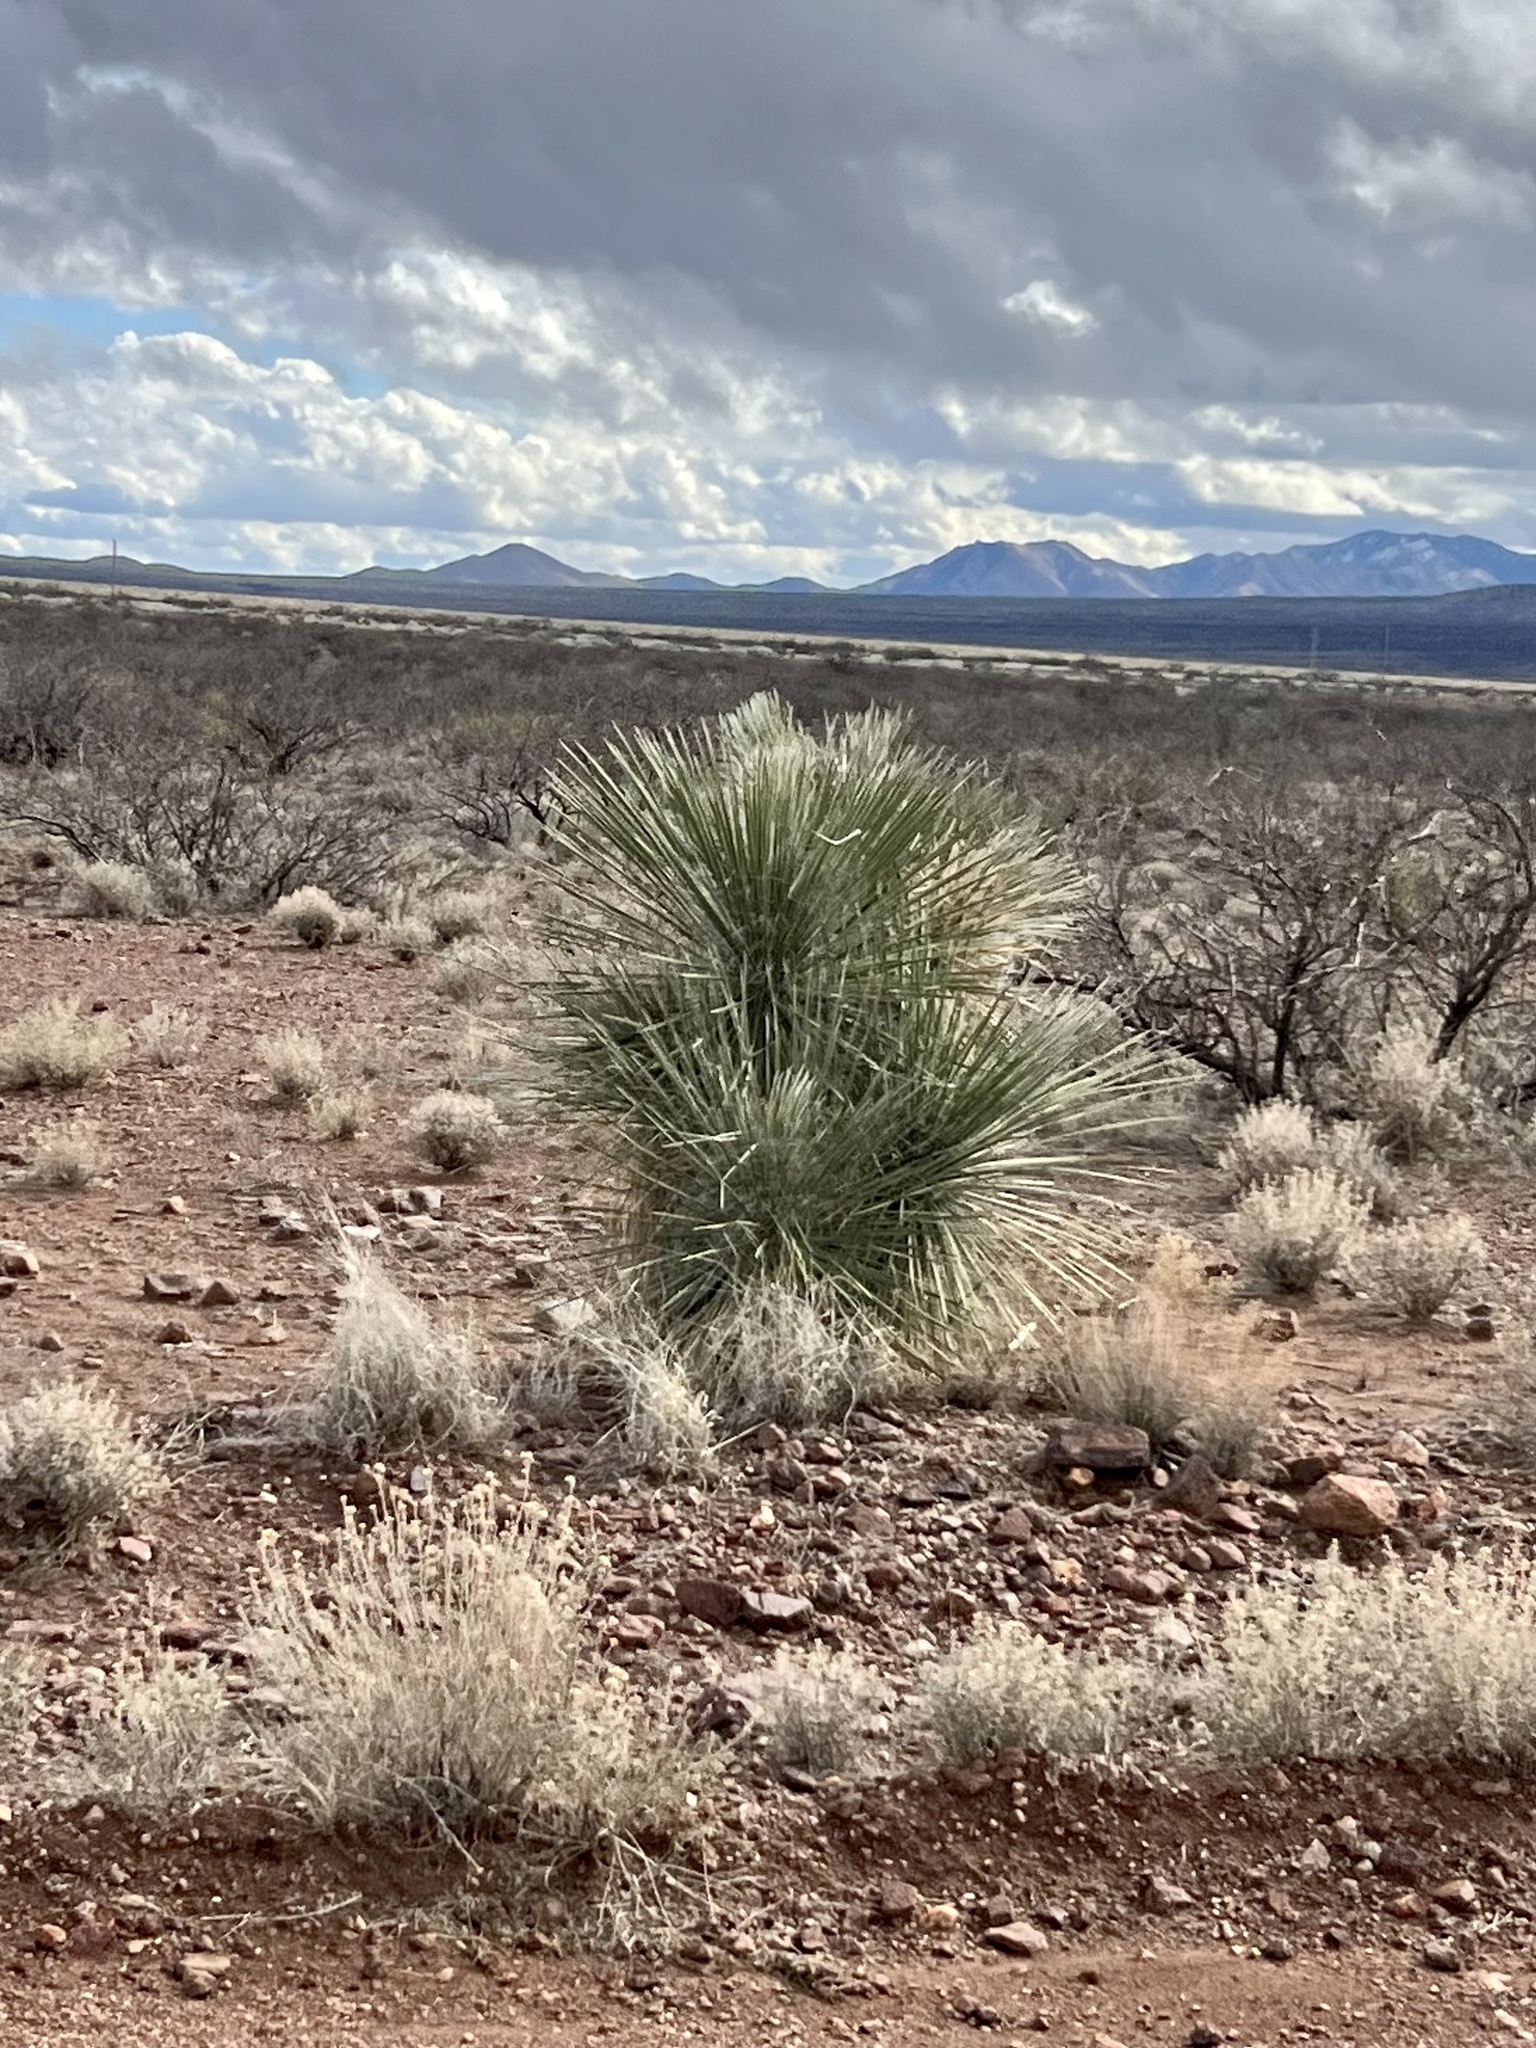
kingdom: Plantae
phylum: Tracheophyta
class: Liliopsida
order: Asparagales
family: Asparagaceae
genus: Yucca
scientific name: Yucca elata
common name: Palmella
